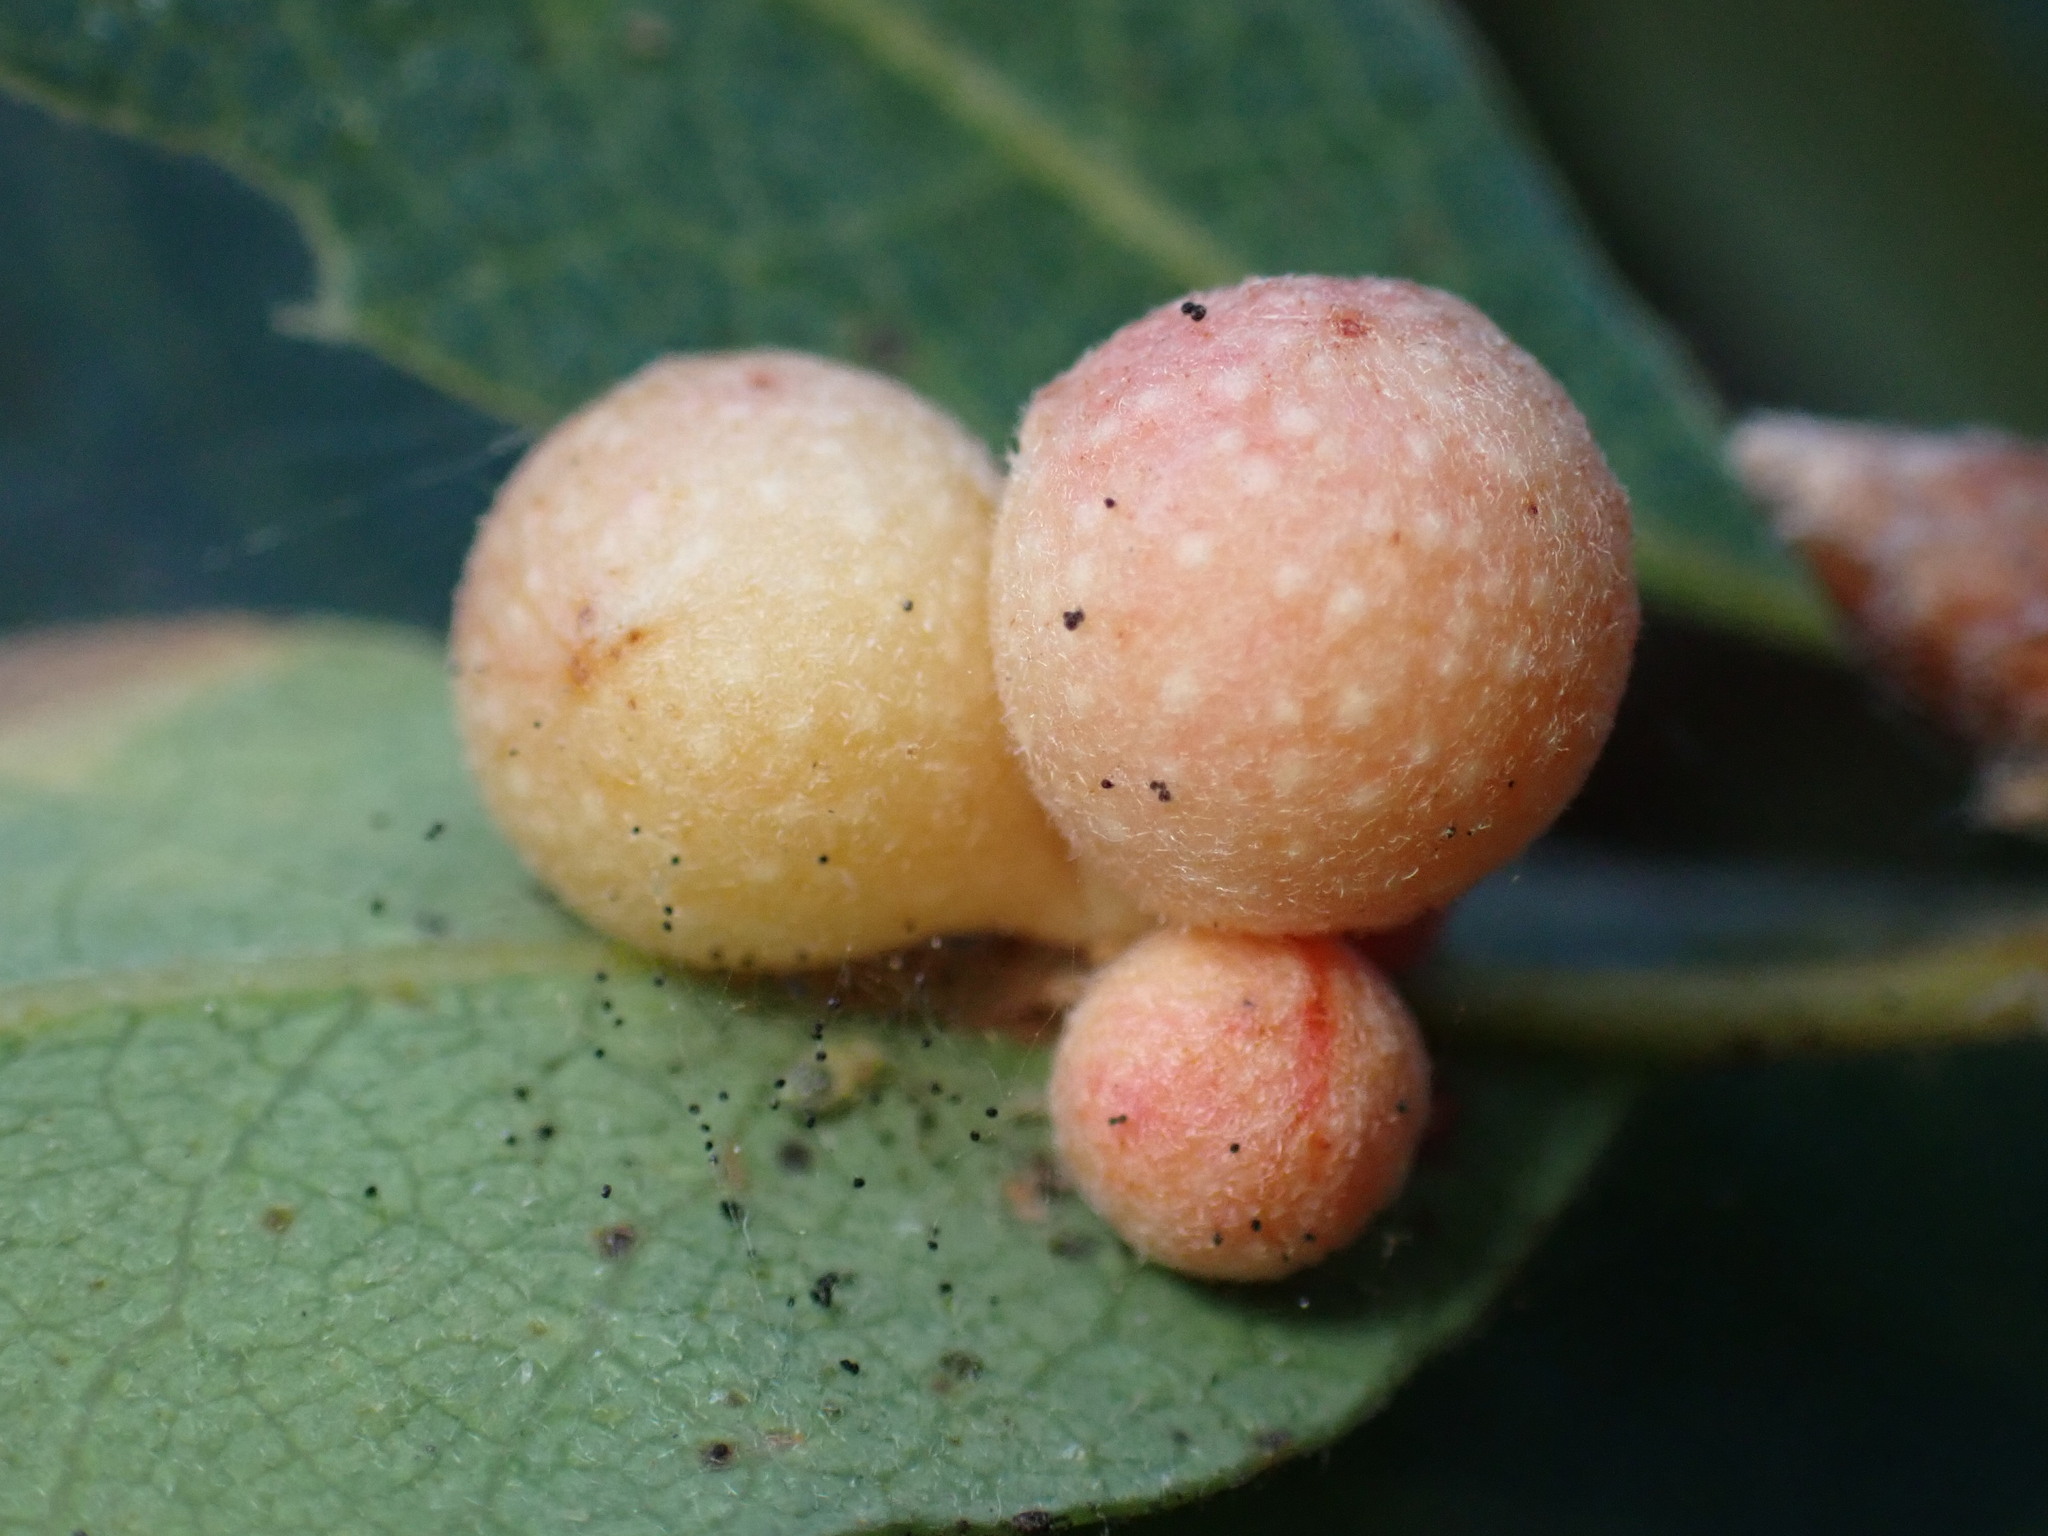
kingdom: Animalia
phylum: Arthropoda
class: Insecta
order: Hymenoptera
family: Cynipidae
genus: Andricus
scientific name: Andricus
